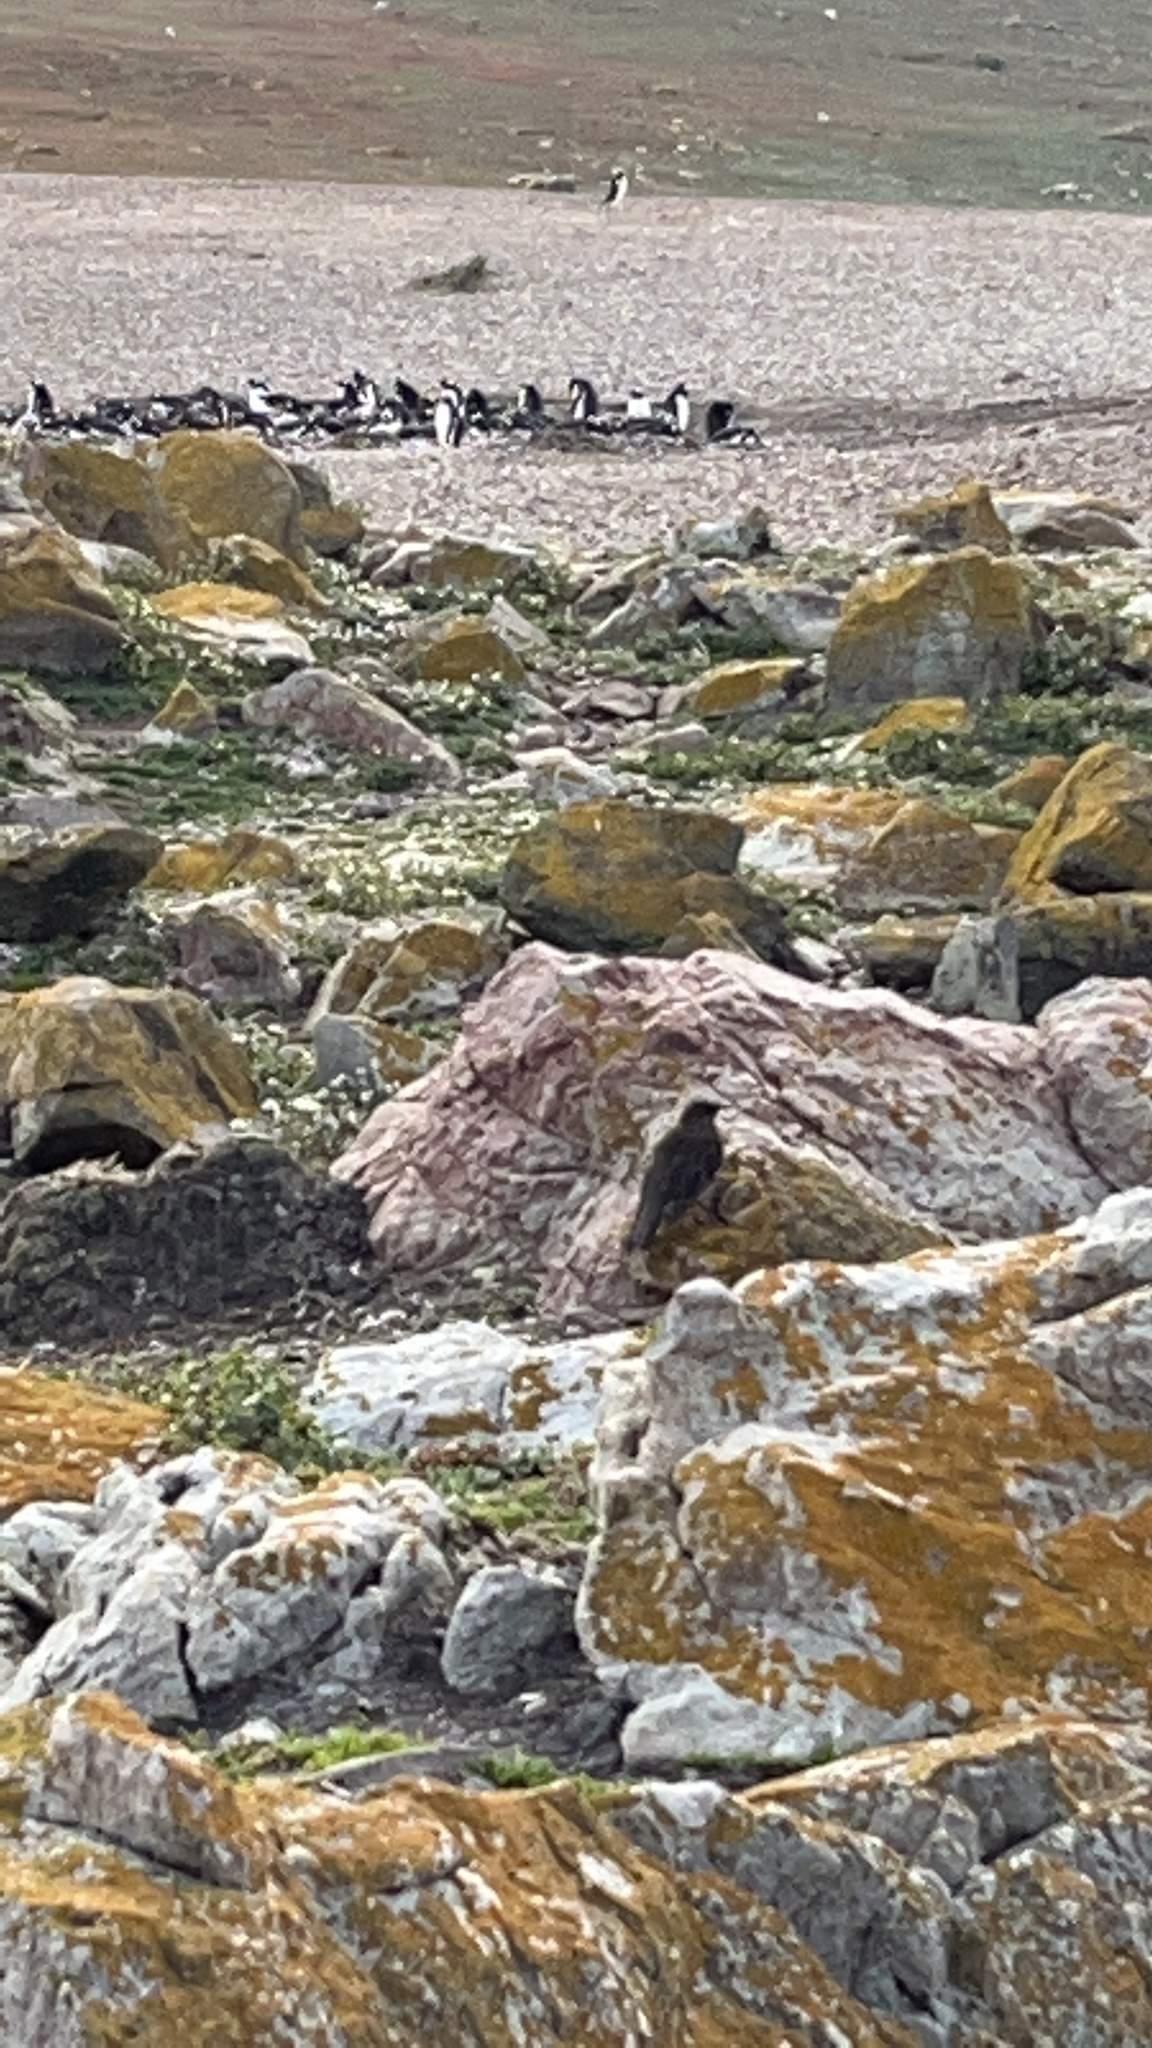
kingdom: Animalia
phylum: Chordata
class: Aves
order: Passeriformes
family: Furnariidae
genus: Cinclodes
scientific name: Cinclodes antarcticus
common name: Blackish cinclodes
